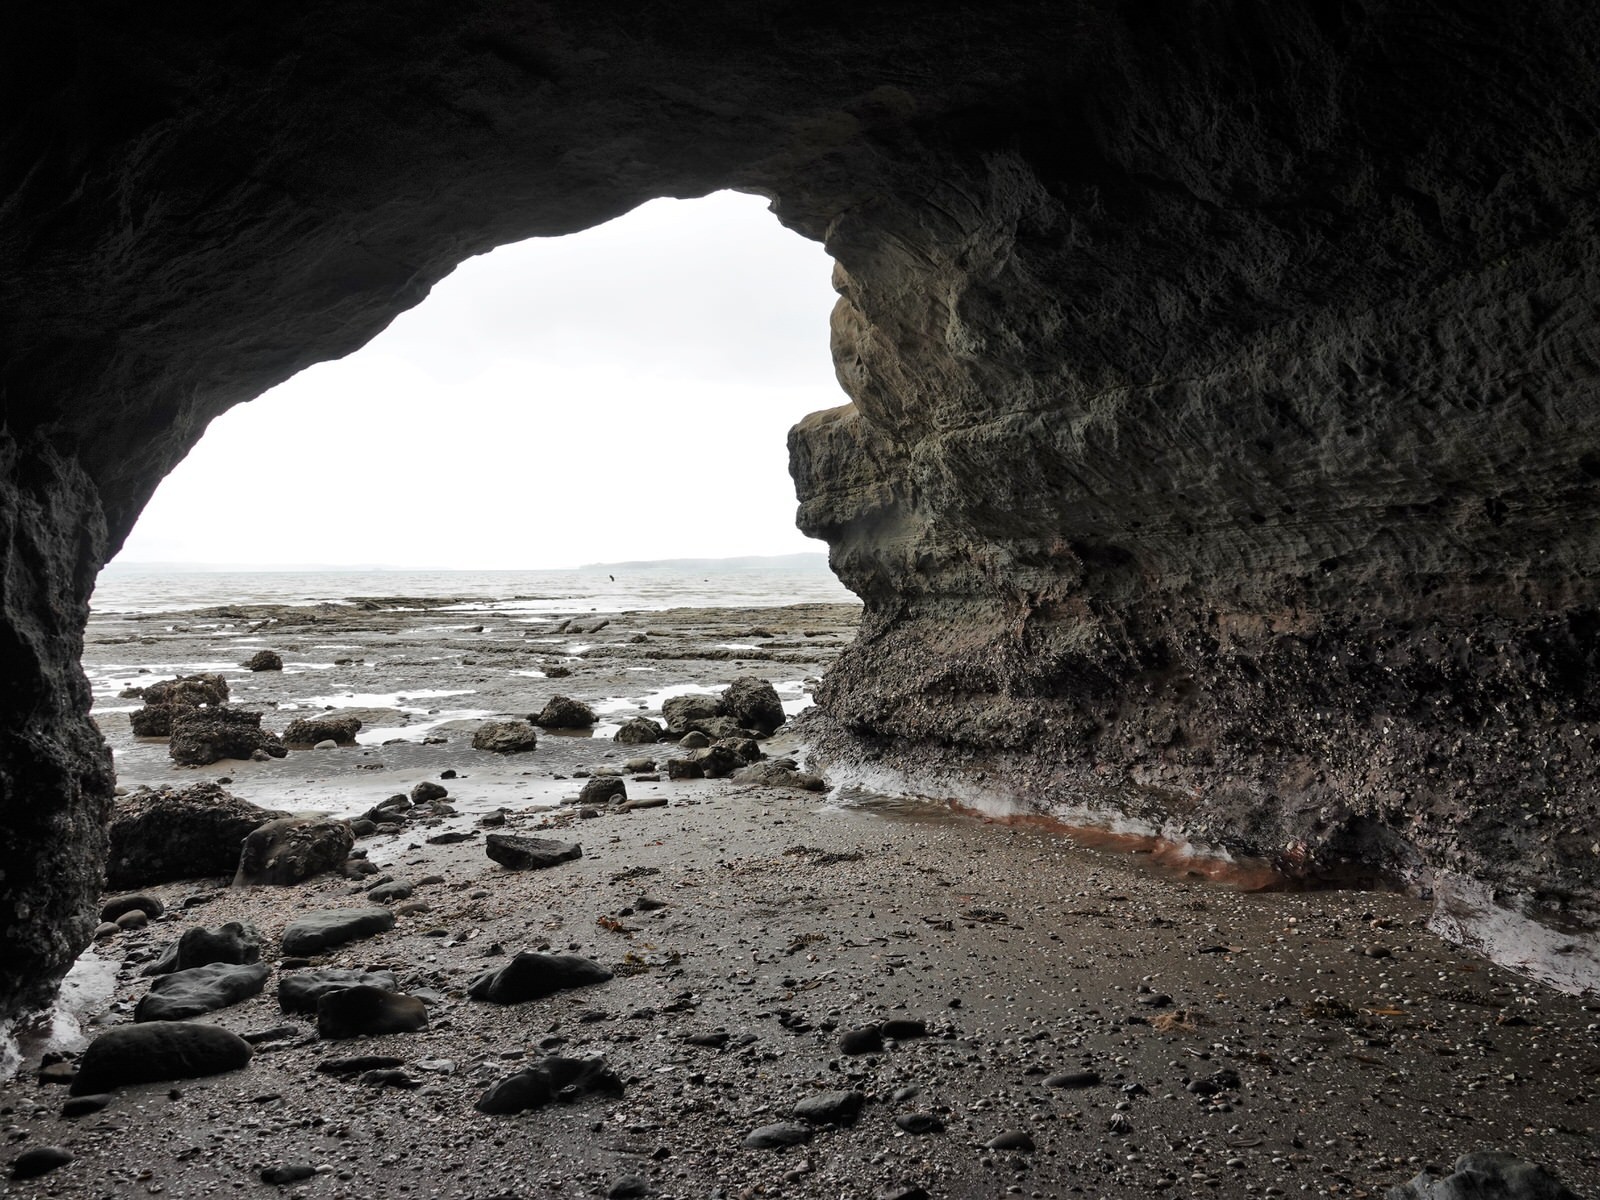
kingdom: Animalia
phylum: Cnidaria
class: Anthozoa
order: Actiniaria
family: Actiniidae
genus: Actinia
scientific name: Actinia tenebrosa
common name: Waratah anemone
